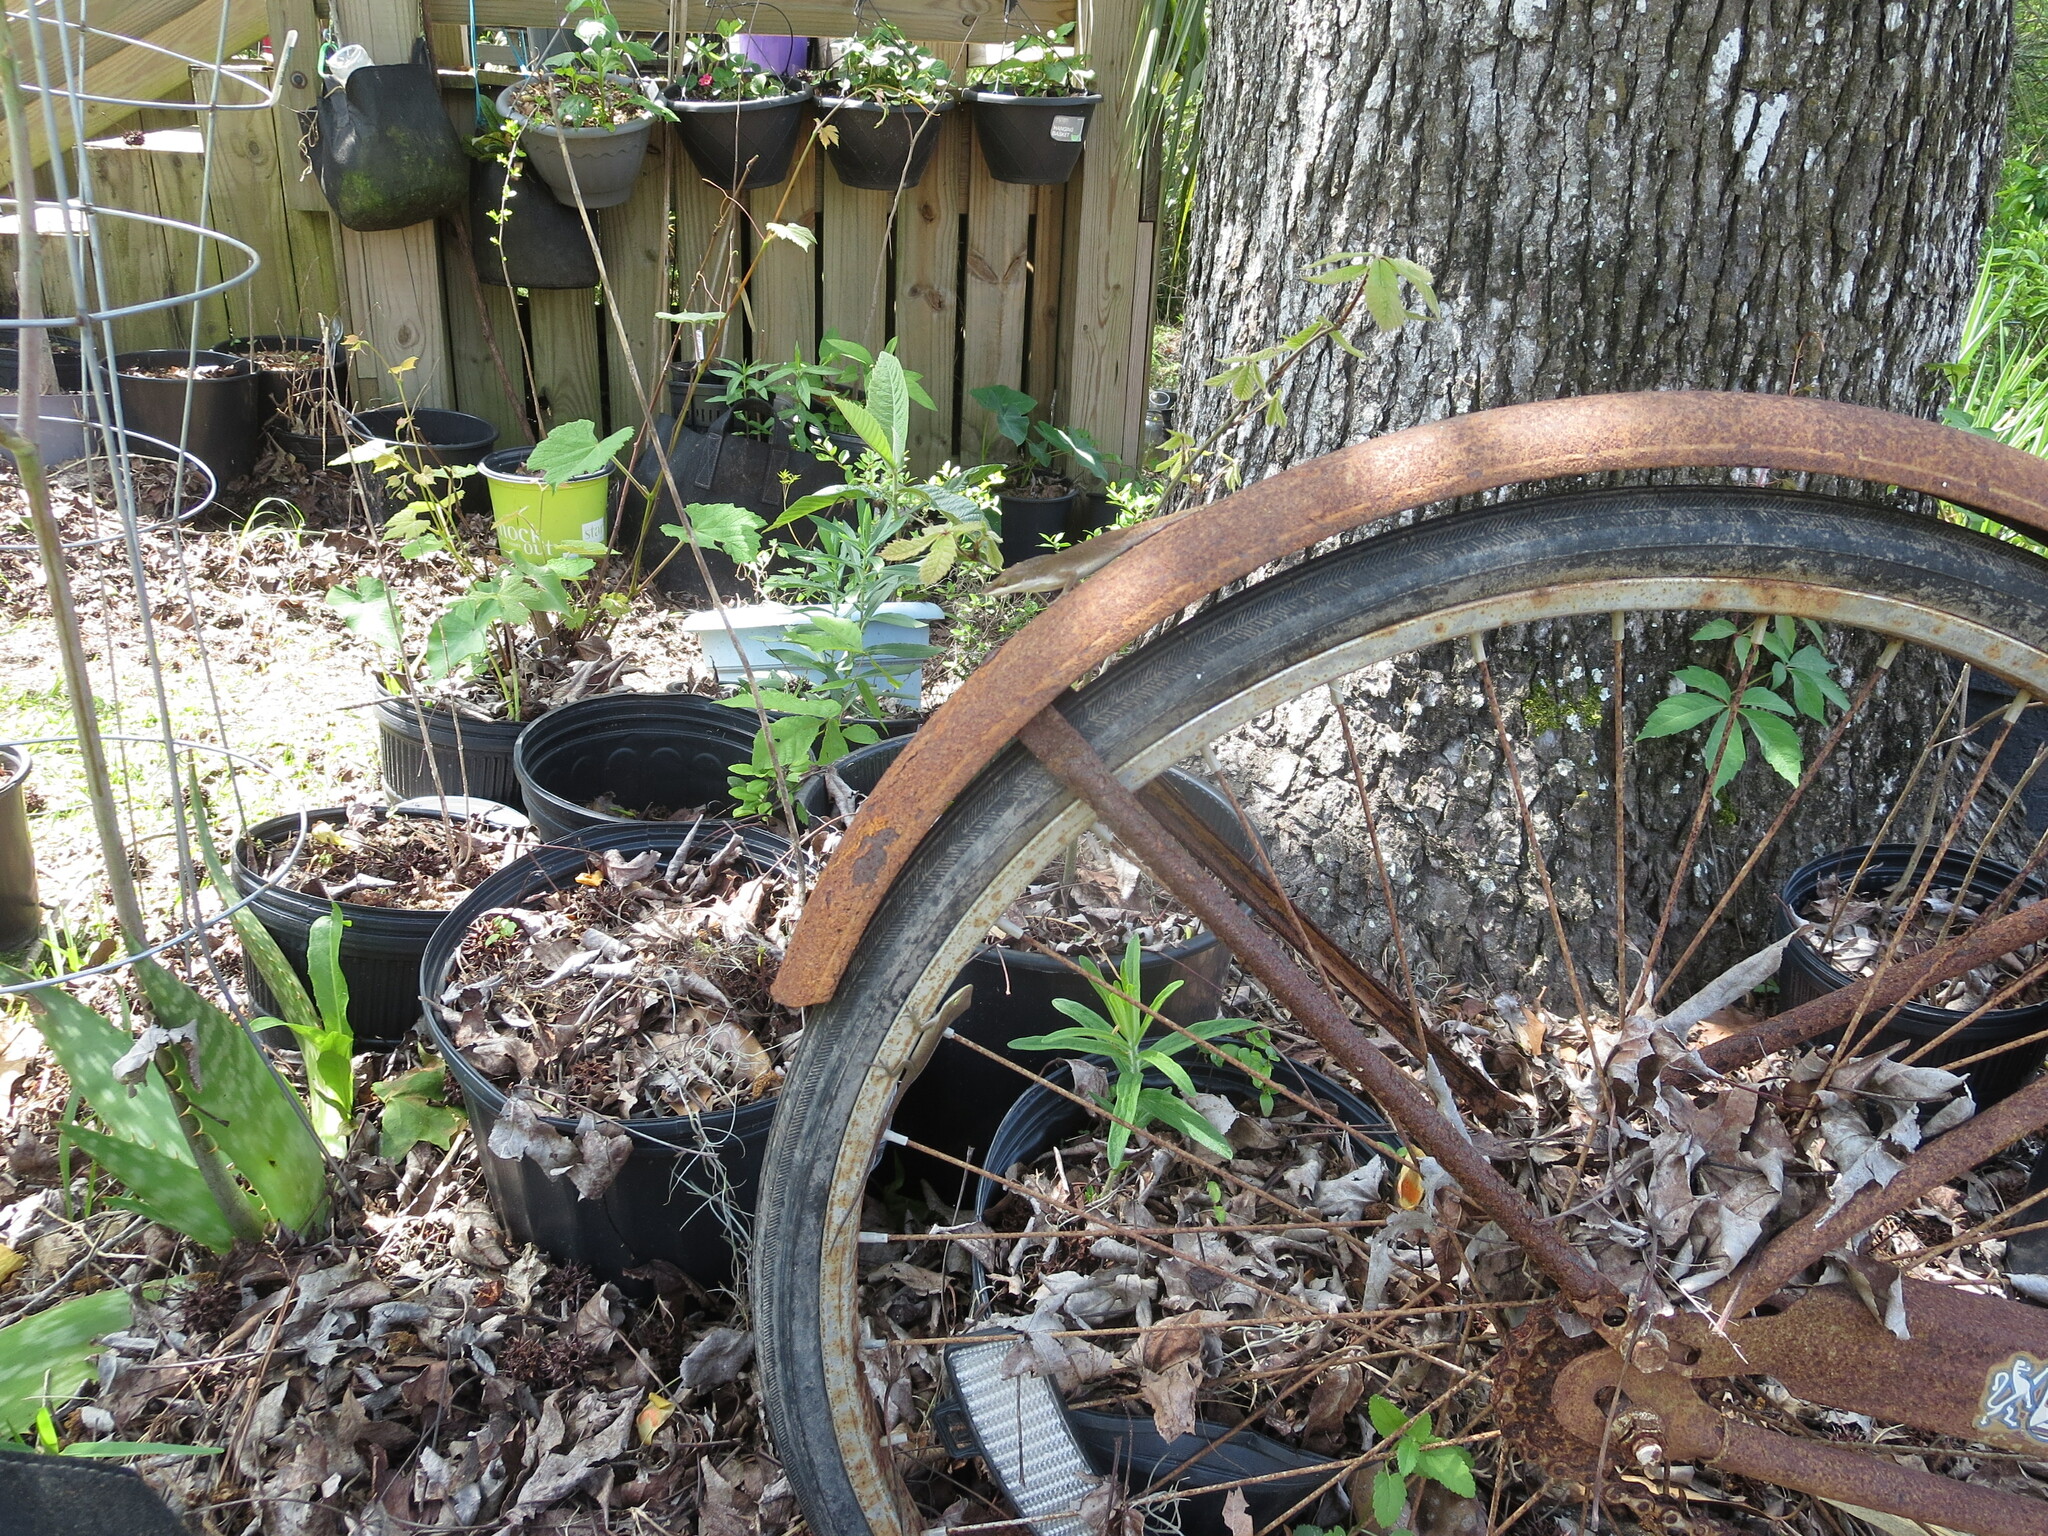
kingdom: Animalia
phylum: Chordata
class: Squamata
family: Dactyloidae
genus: Anolis
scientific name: Anolis carolinensis
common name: Green anole
